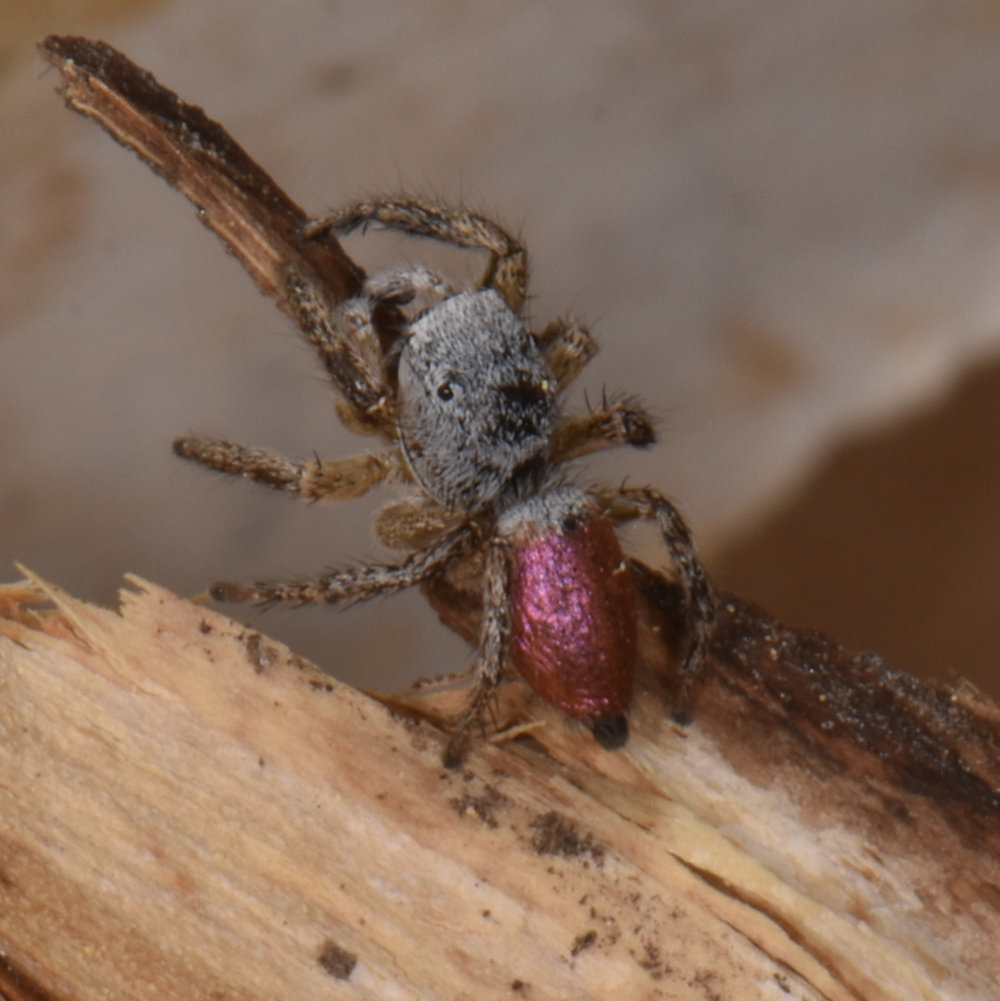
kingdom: Animalia
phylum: Arthropoda
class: Arachnida
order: Araneae
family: Salticidae
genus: Habronattus
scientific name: Habronattus decorus
